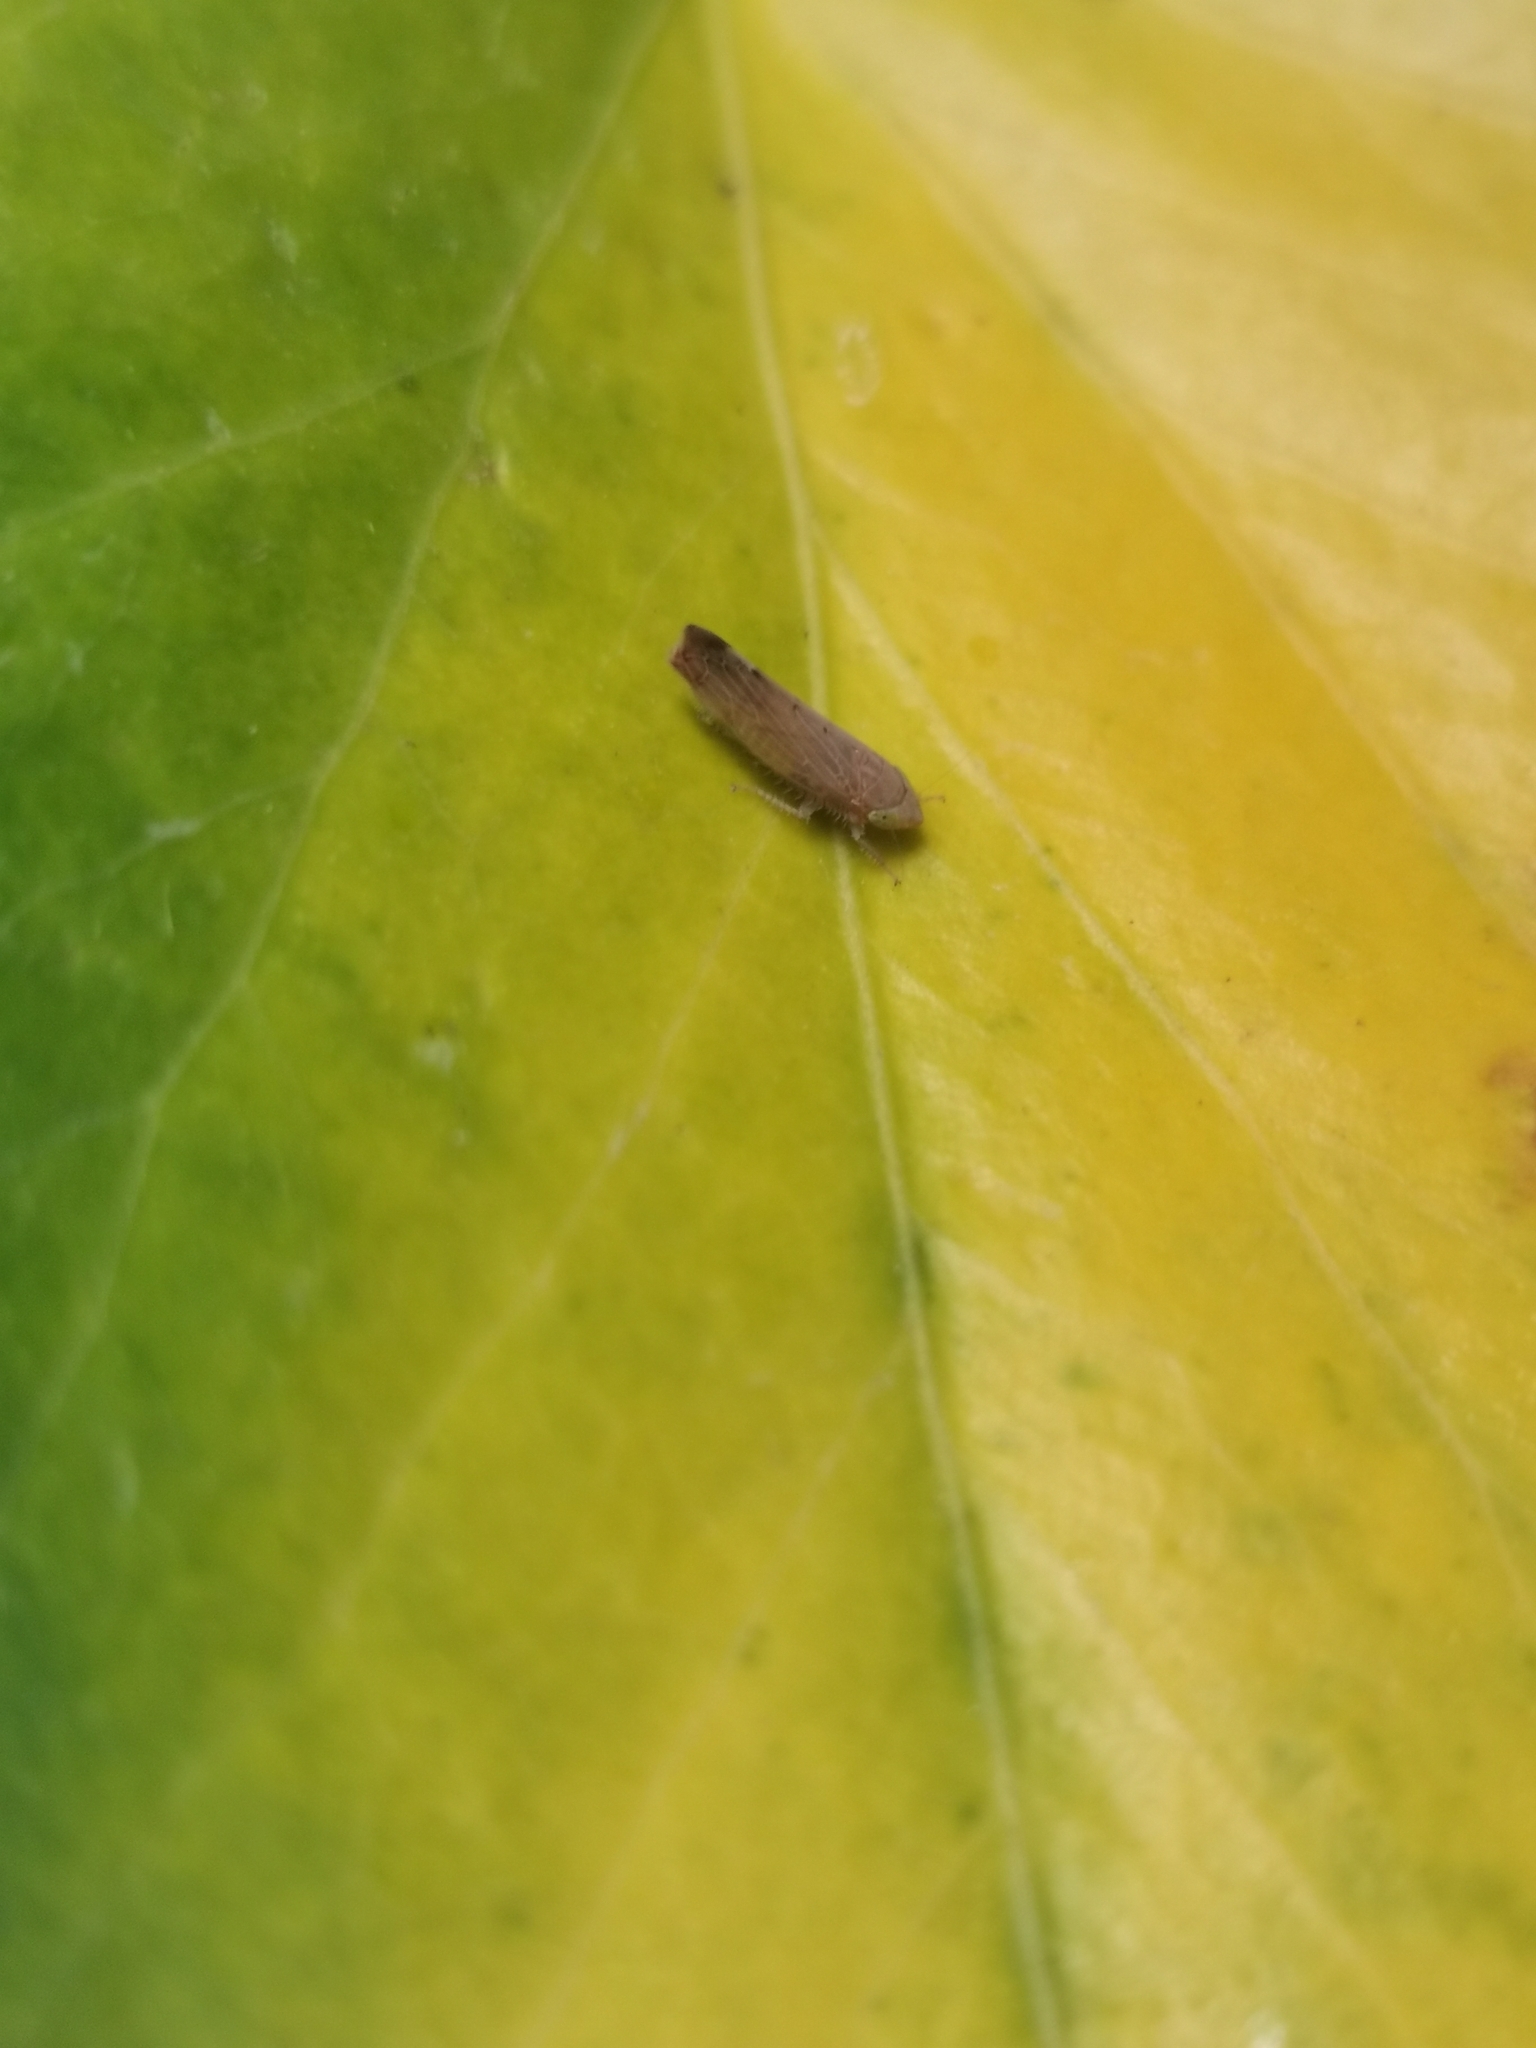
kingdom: Animalia
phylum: Arthropoda
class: Insecta
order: Hemiptera
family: Cicadellidae
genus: Synophropsis
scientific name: Synophropsis lauri
